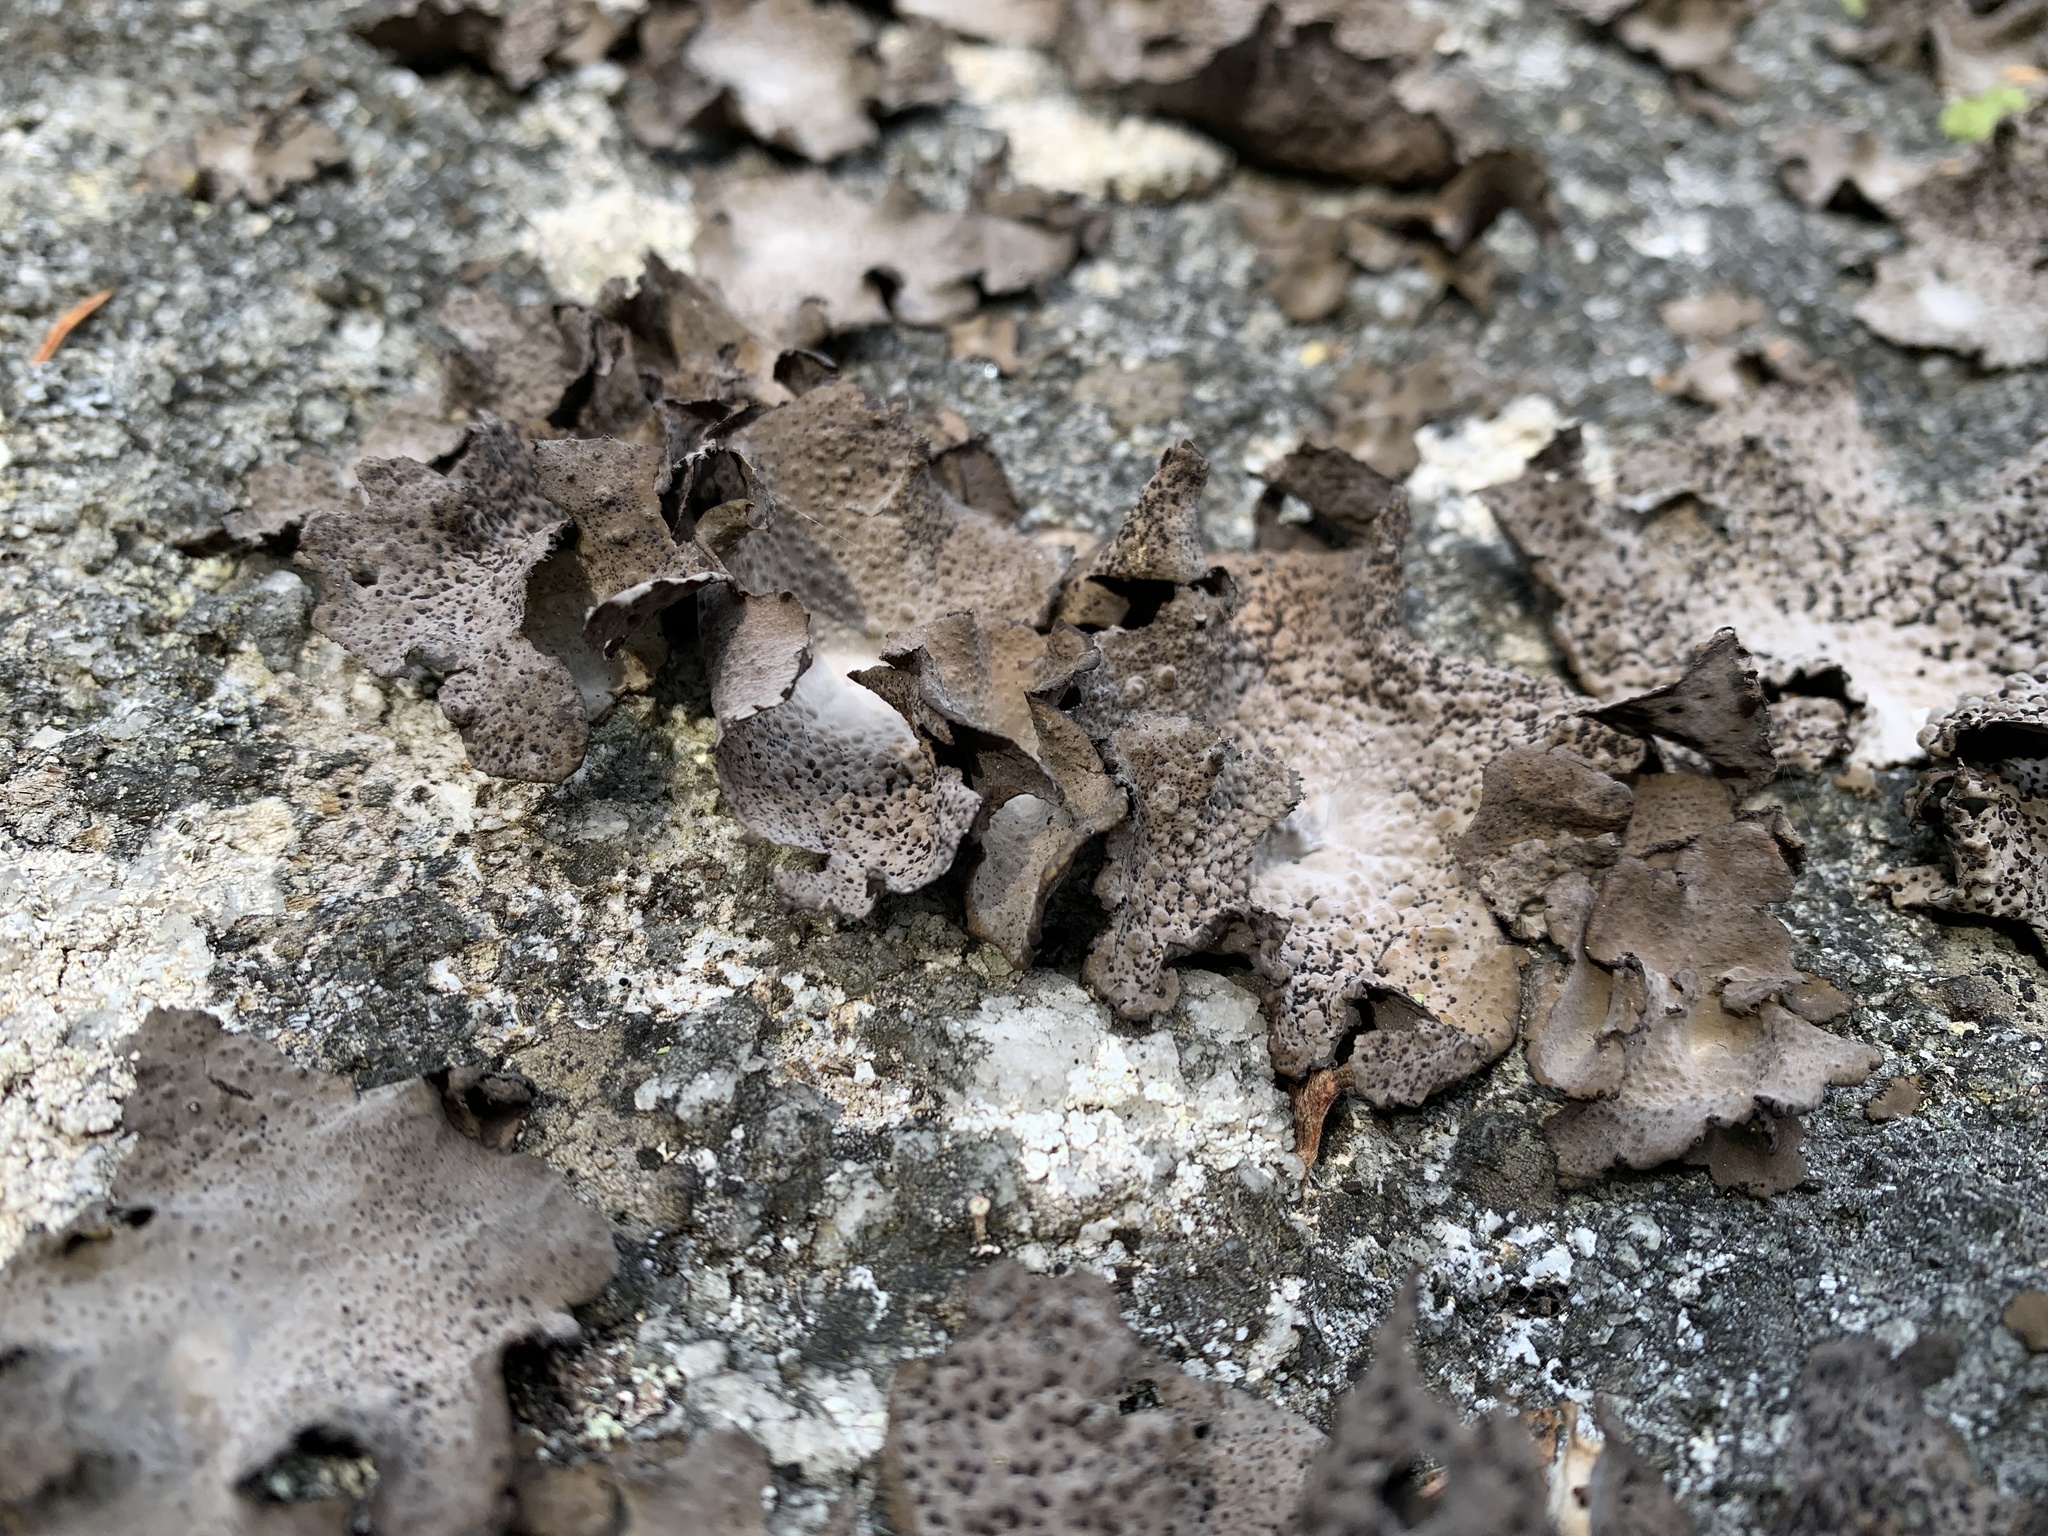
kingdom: Fungi
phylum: Ascomycota
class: Lecanoromycetes
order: Umbilicariales
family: Umbilicariaceae
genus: Lasallia
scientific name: Lasallia papulosa
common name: Common toadskin lichen
